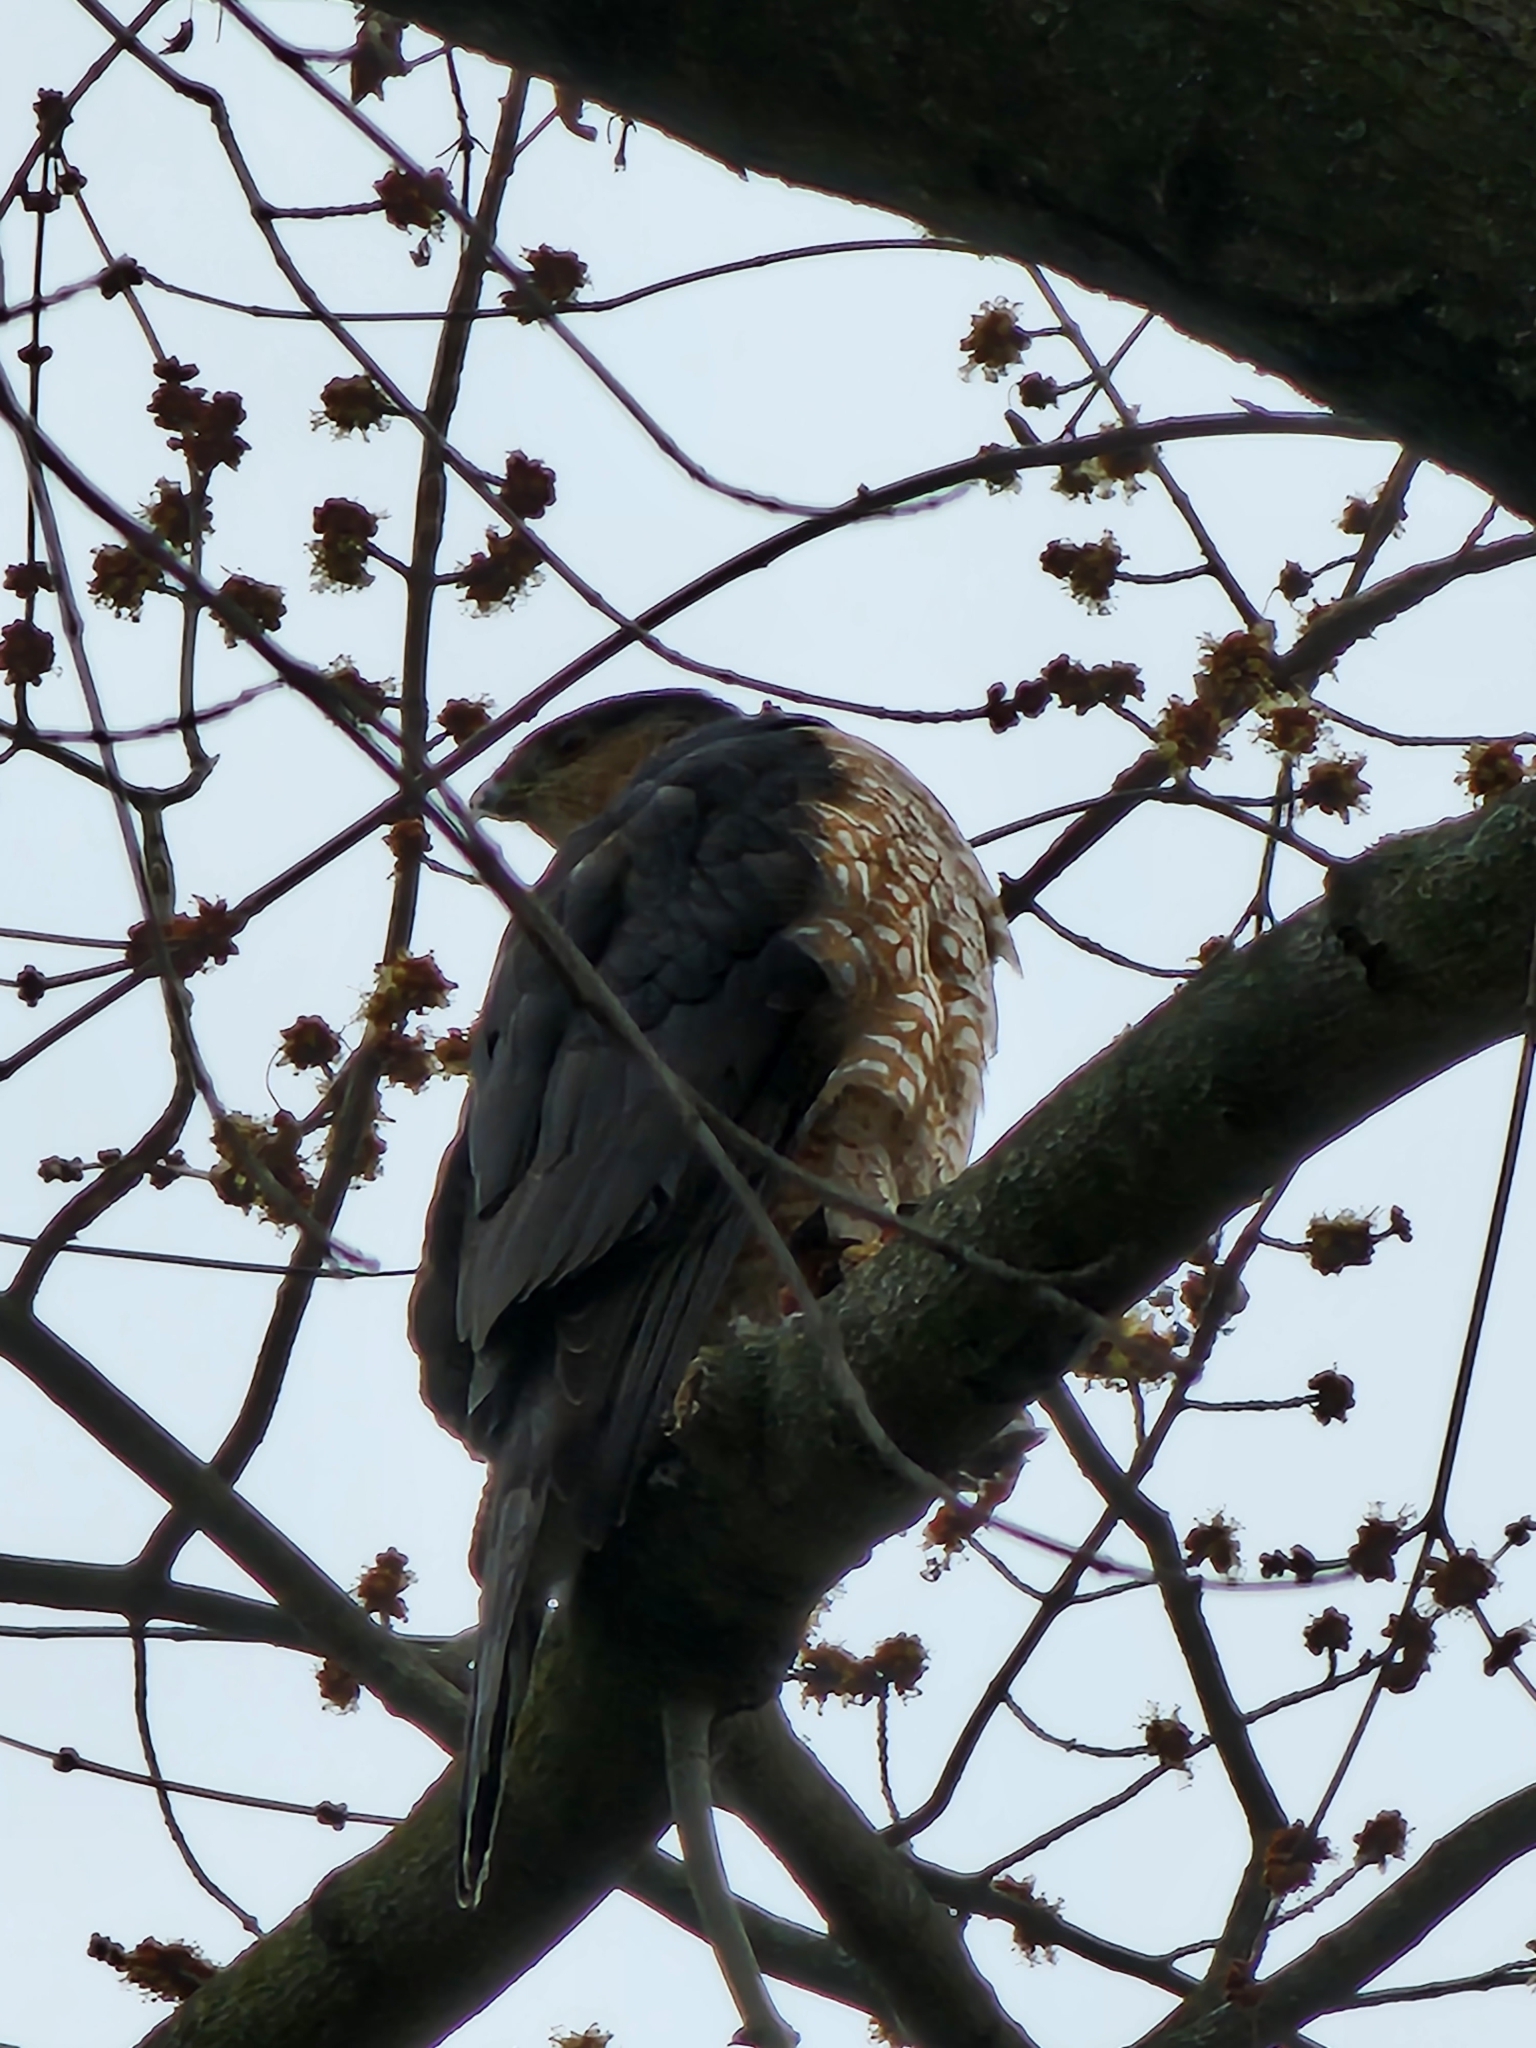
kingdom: Animalia
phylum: Chordata
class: Aves
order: Accipitriformes
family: Accipitridae
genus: Accipiter
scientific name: Accipiter cooperii
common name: Cooper's hawk
